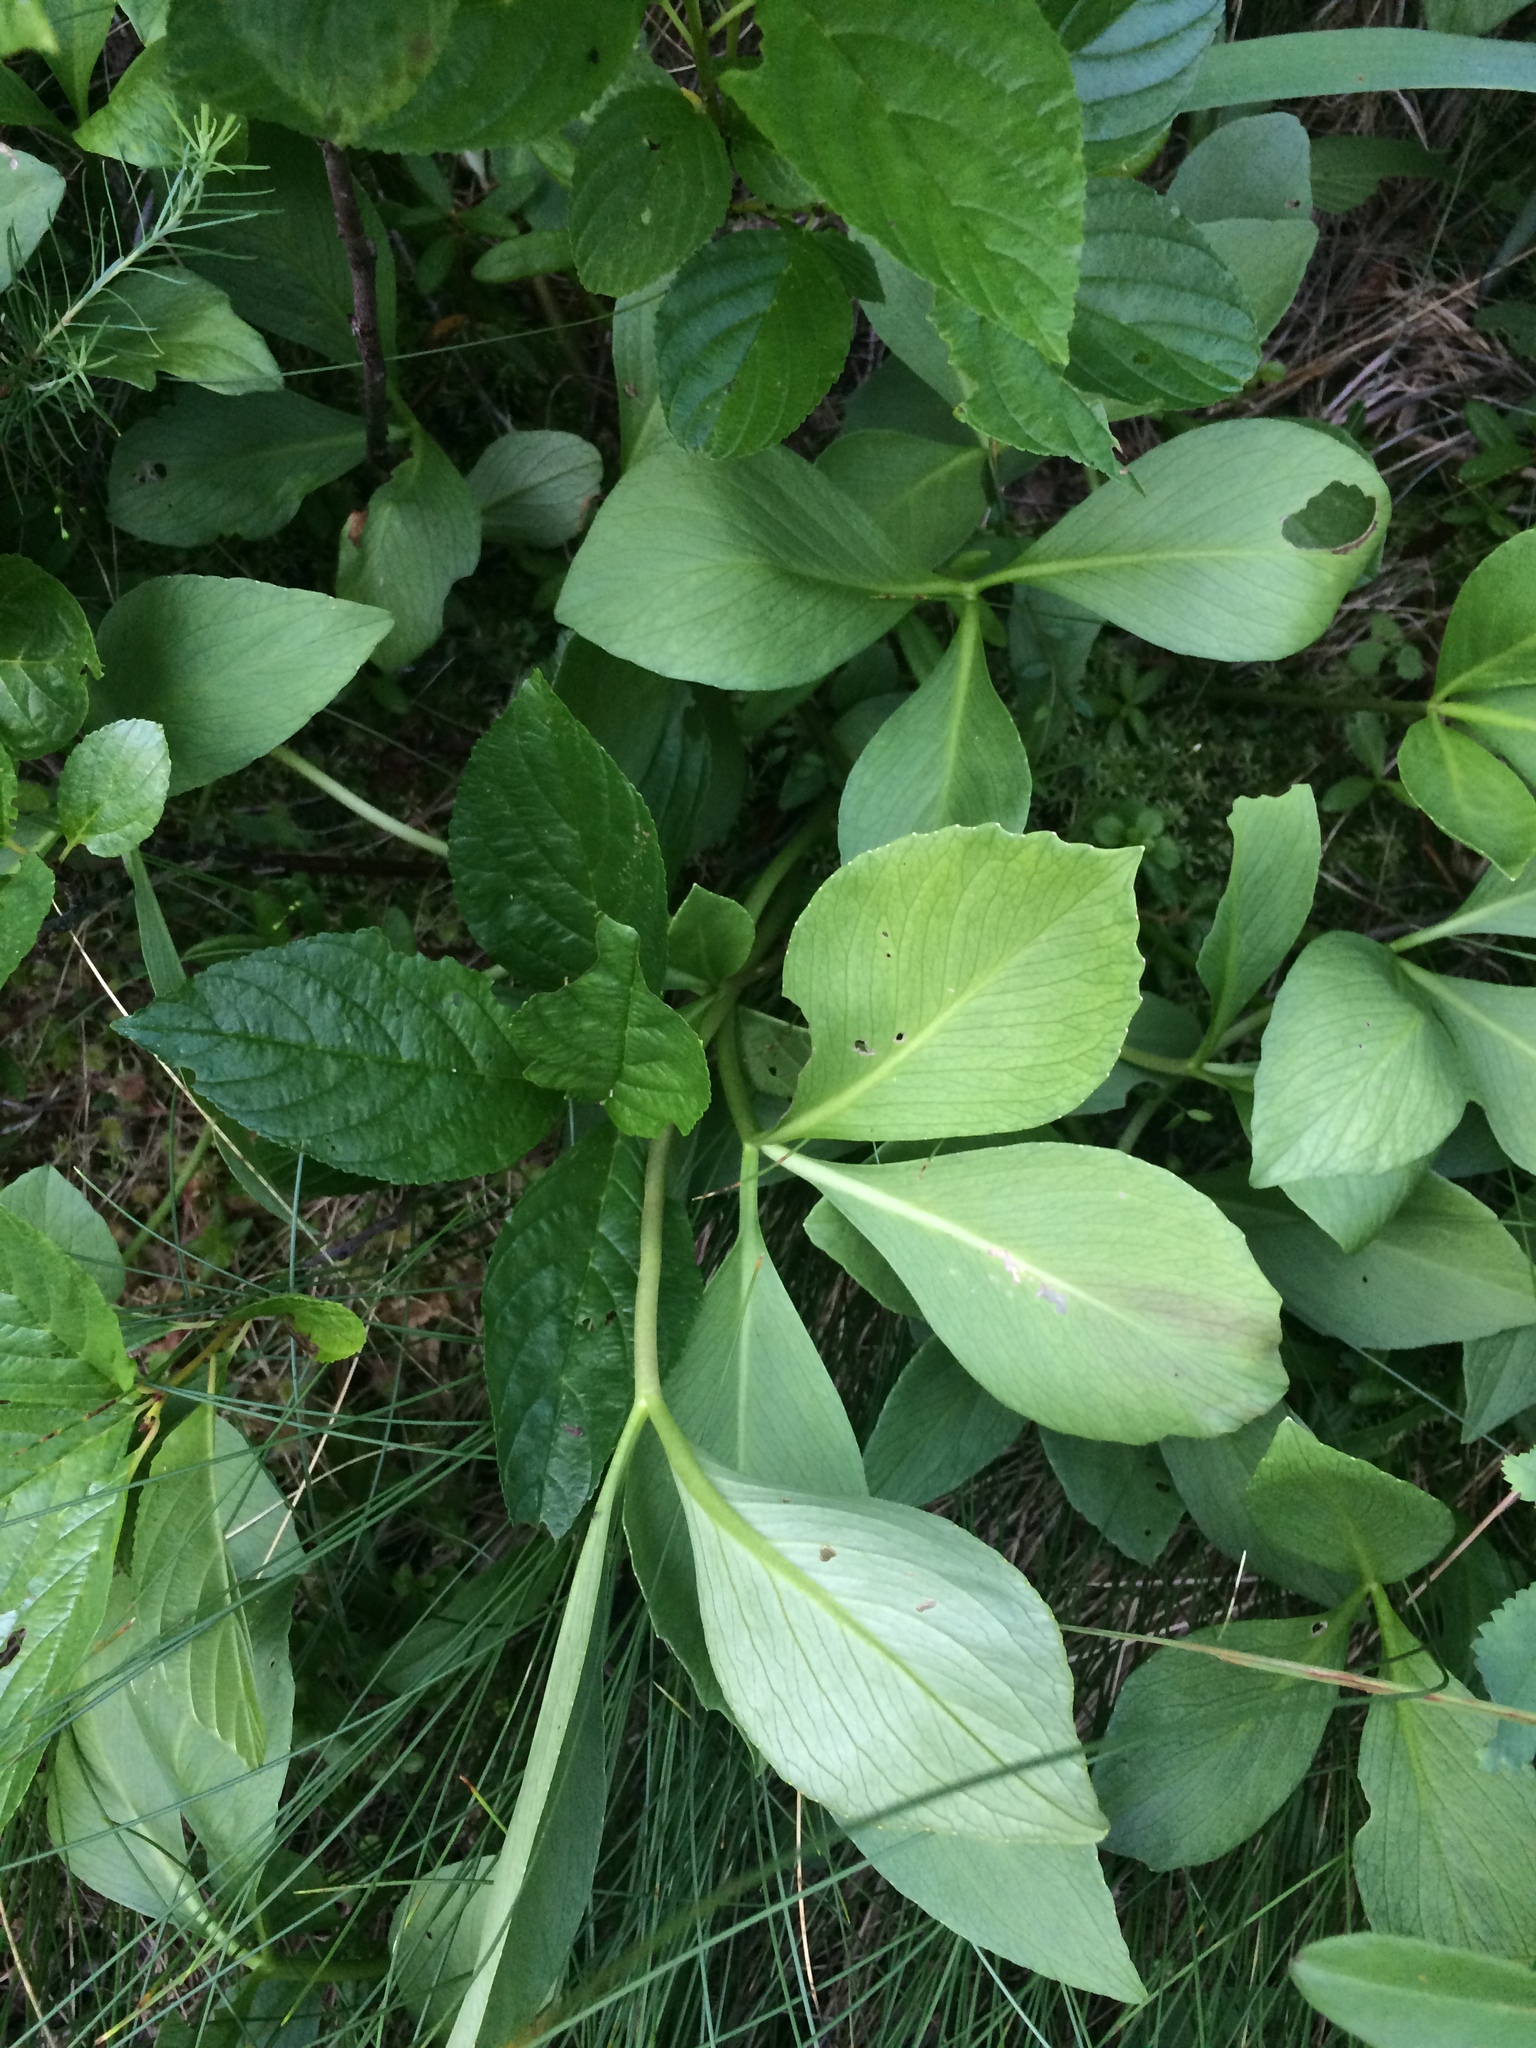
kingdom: Plantae
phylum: Tracheophyta
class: Magnoliopsida
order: Asterales
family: Menyanthaceae
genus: Menyanthes
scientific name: Menyanthes trifoliata
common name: Bogbean
